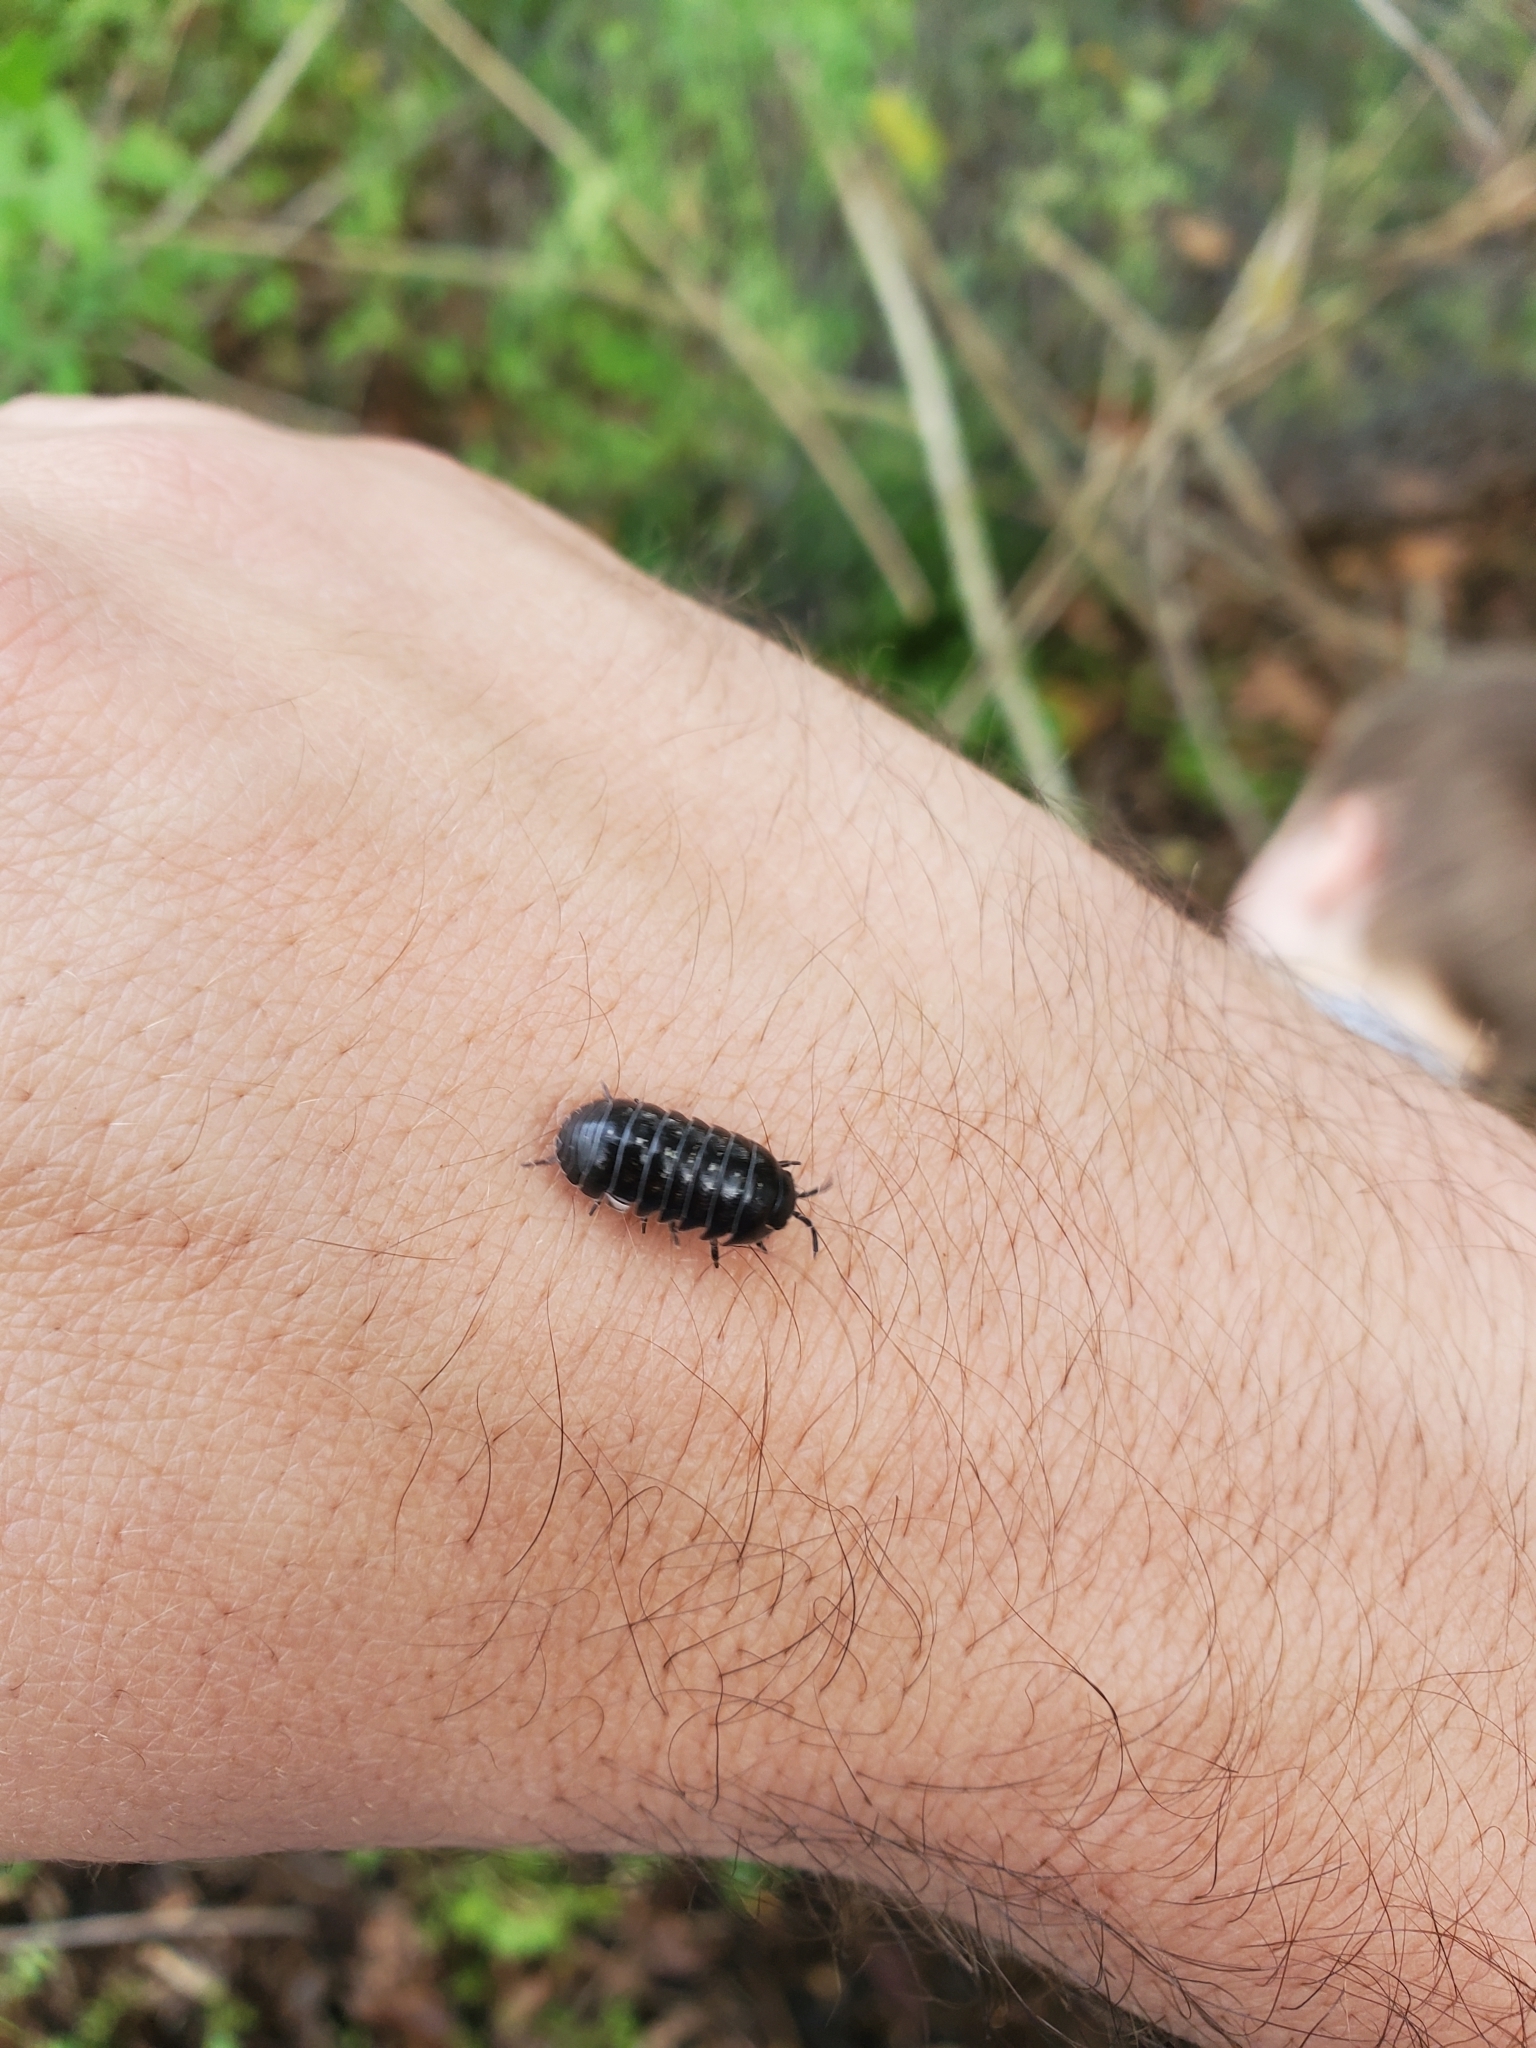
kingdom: Animalia
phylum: Arthropoda
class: Malacostraca
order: Isopoda
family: Armadillidiidae
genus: Armadillidium
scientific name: Armadillidium vulgare
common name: Common pill woodlouse
